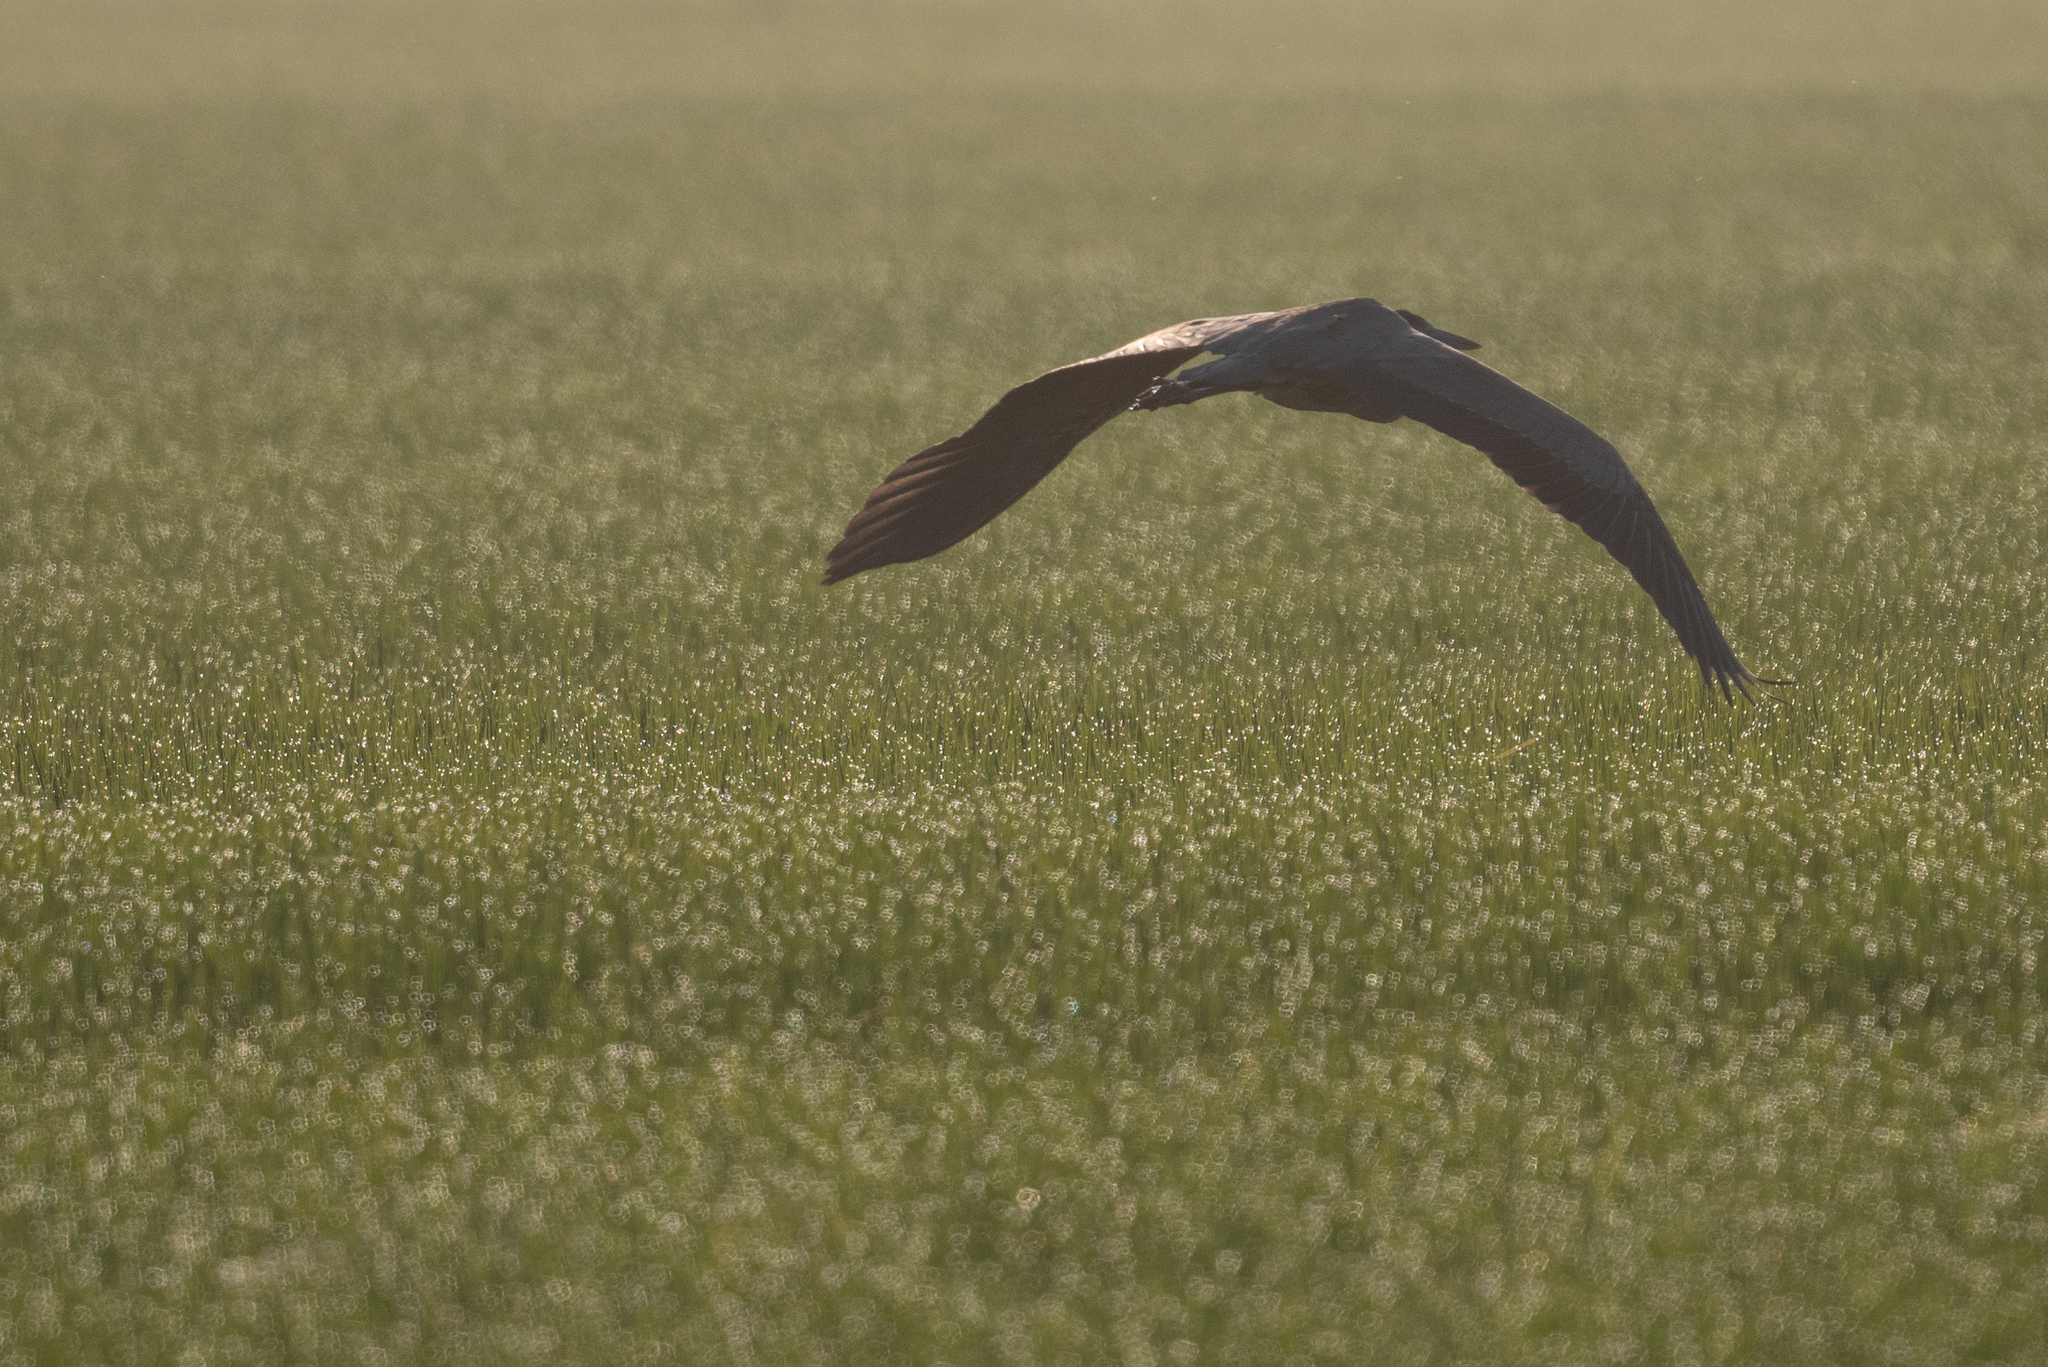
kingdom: Animalia
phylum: Chordata
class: Aves
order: Pelecaniformes
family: Ardeidae
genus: Ardea
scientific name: Ardea herodias
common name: Great blue heron
